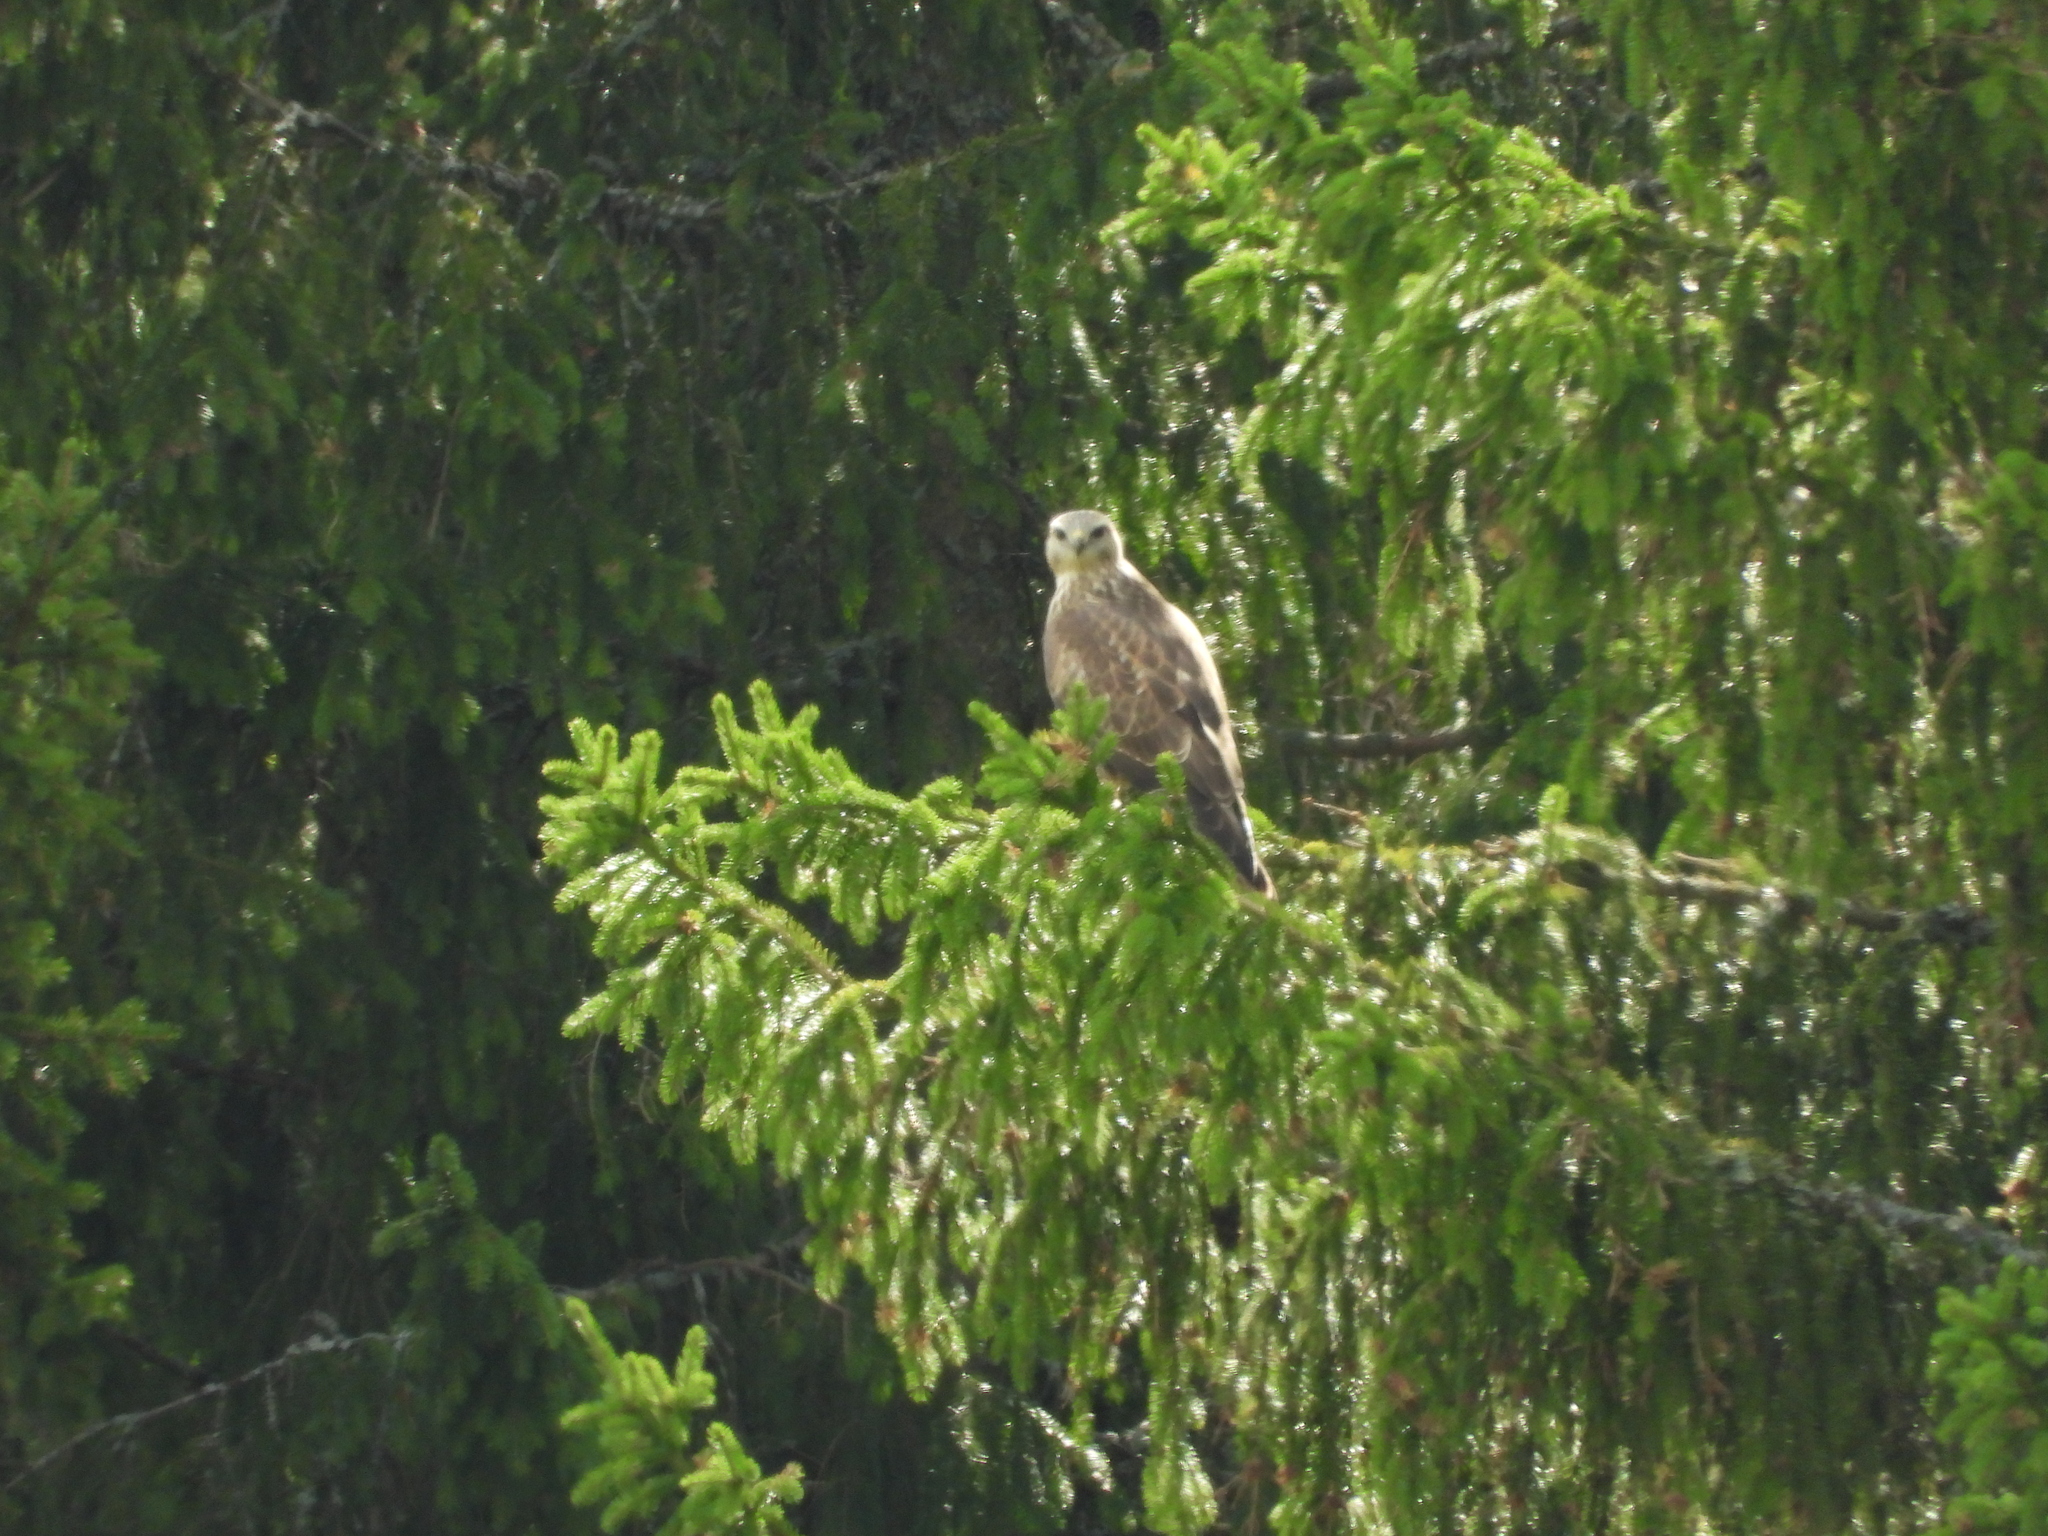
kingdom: Animalia
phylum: Chordata
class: Aves
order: Accipitriformes
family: Accipitridae
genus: Buteo
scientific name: Buteo buteo
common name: Common buzzard
